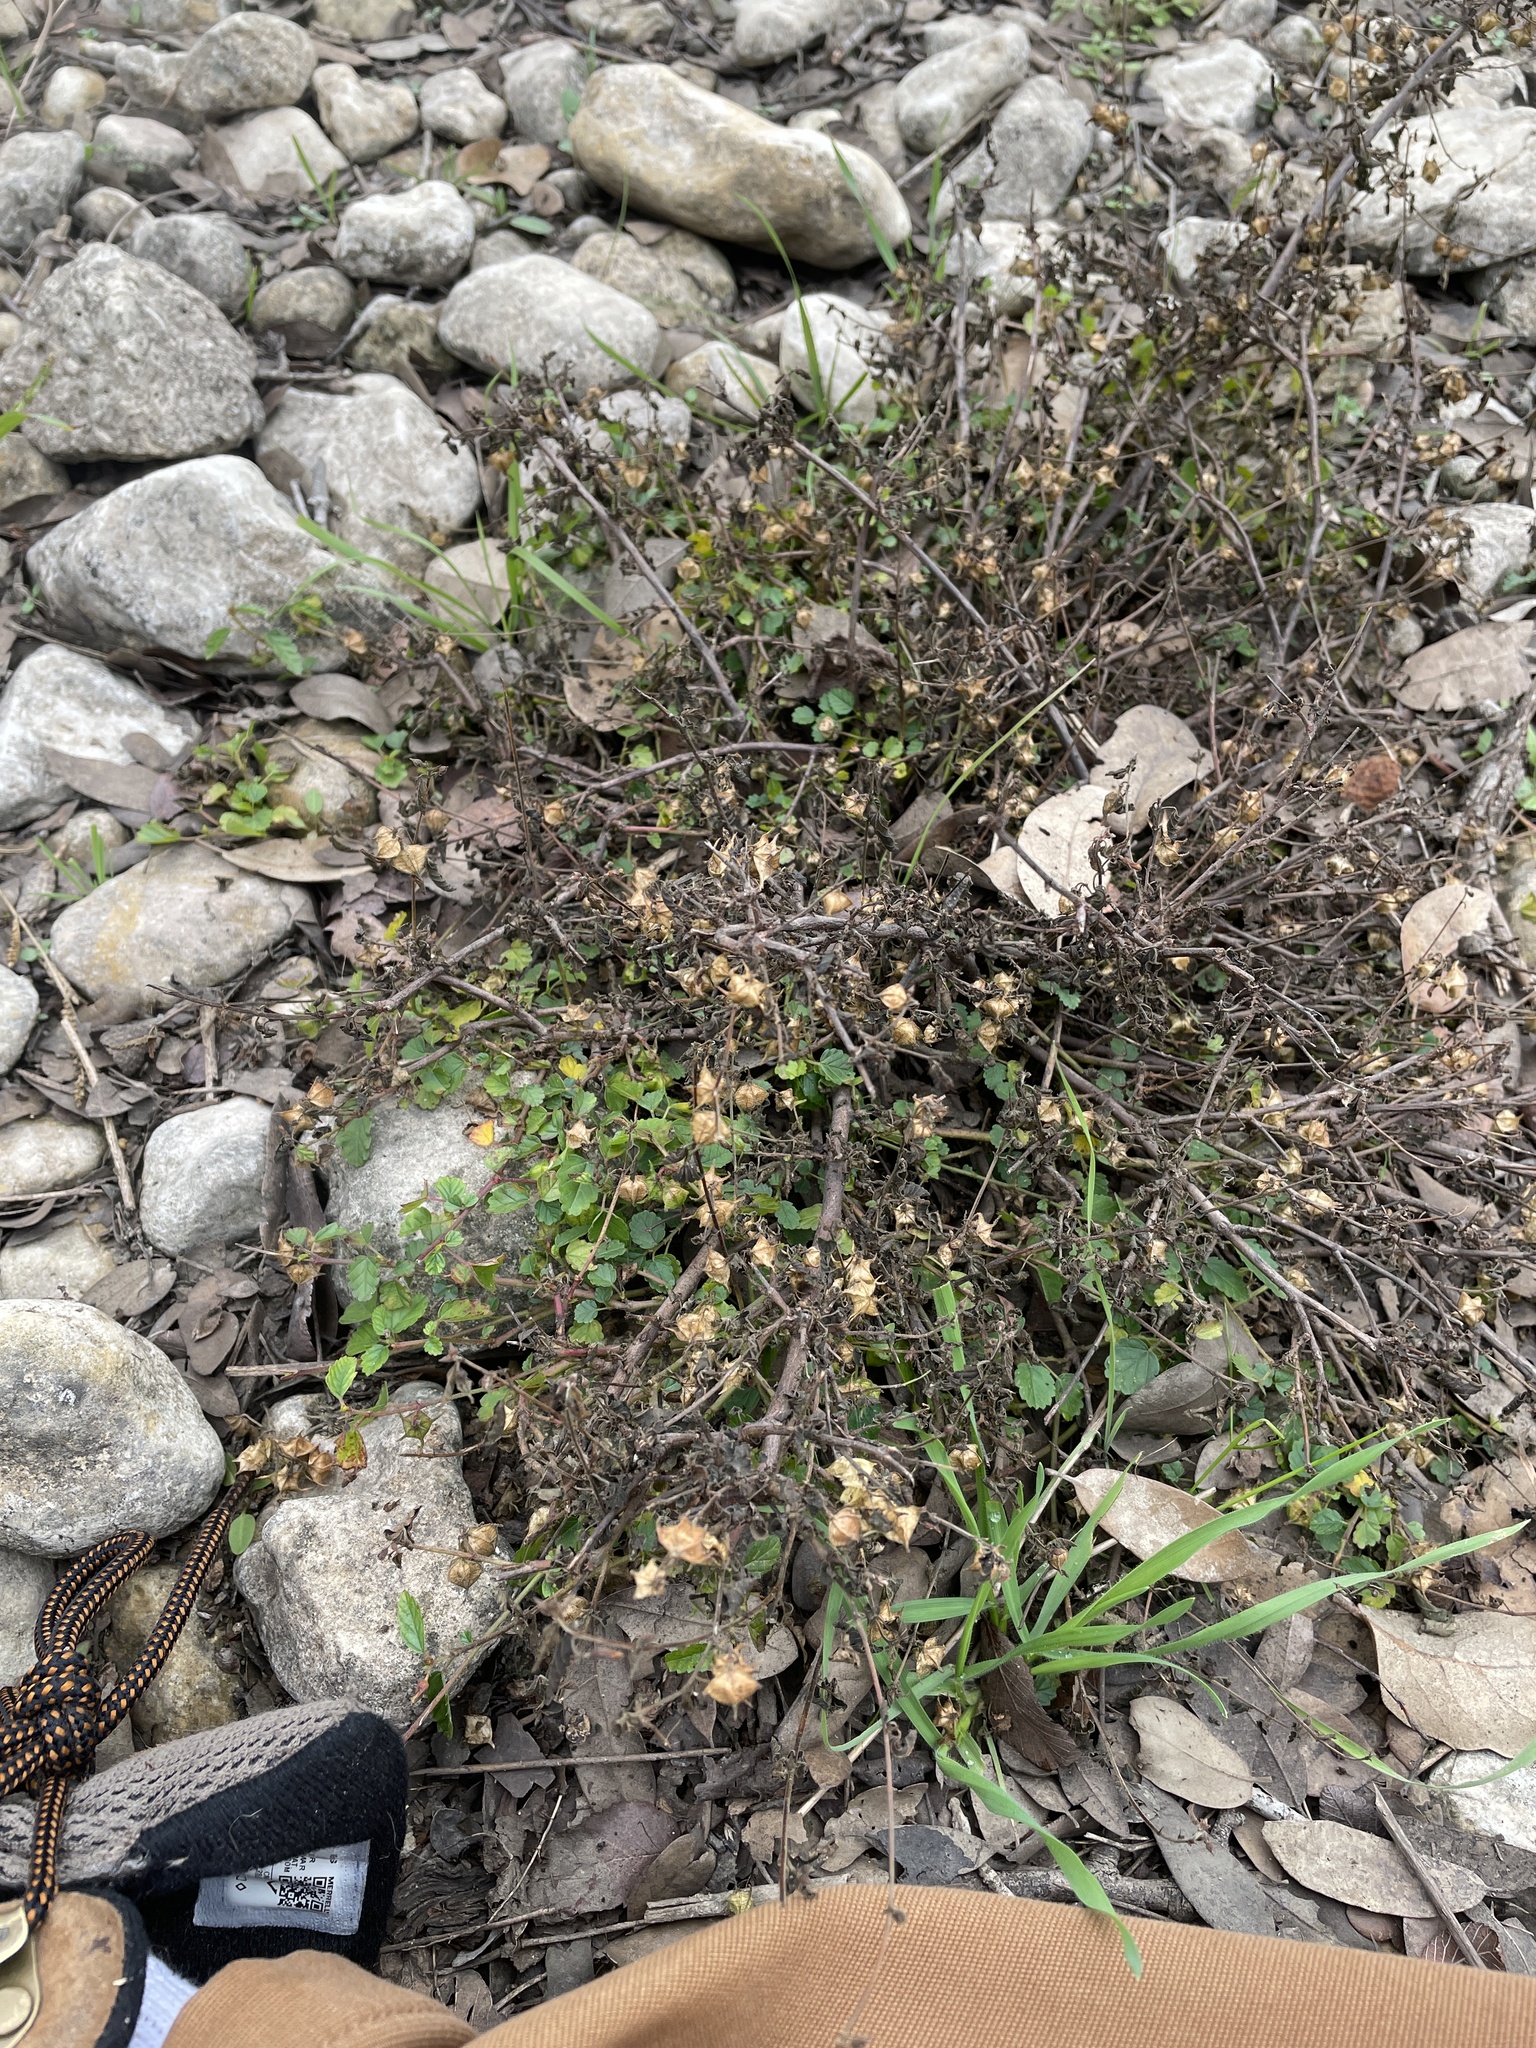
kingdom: Plantae
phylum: Tracheophyta
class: Magnoliopsida
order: Malvales
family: Malvaceae
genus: Melochia
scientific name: Melochia pyramidata
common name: Pyramidflower
